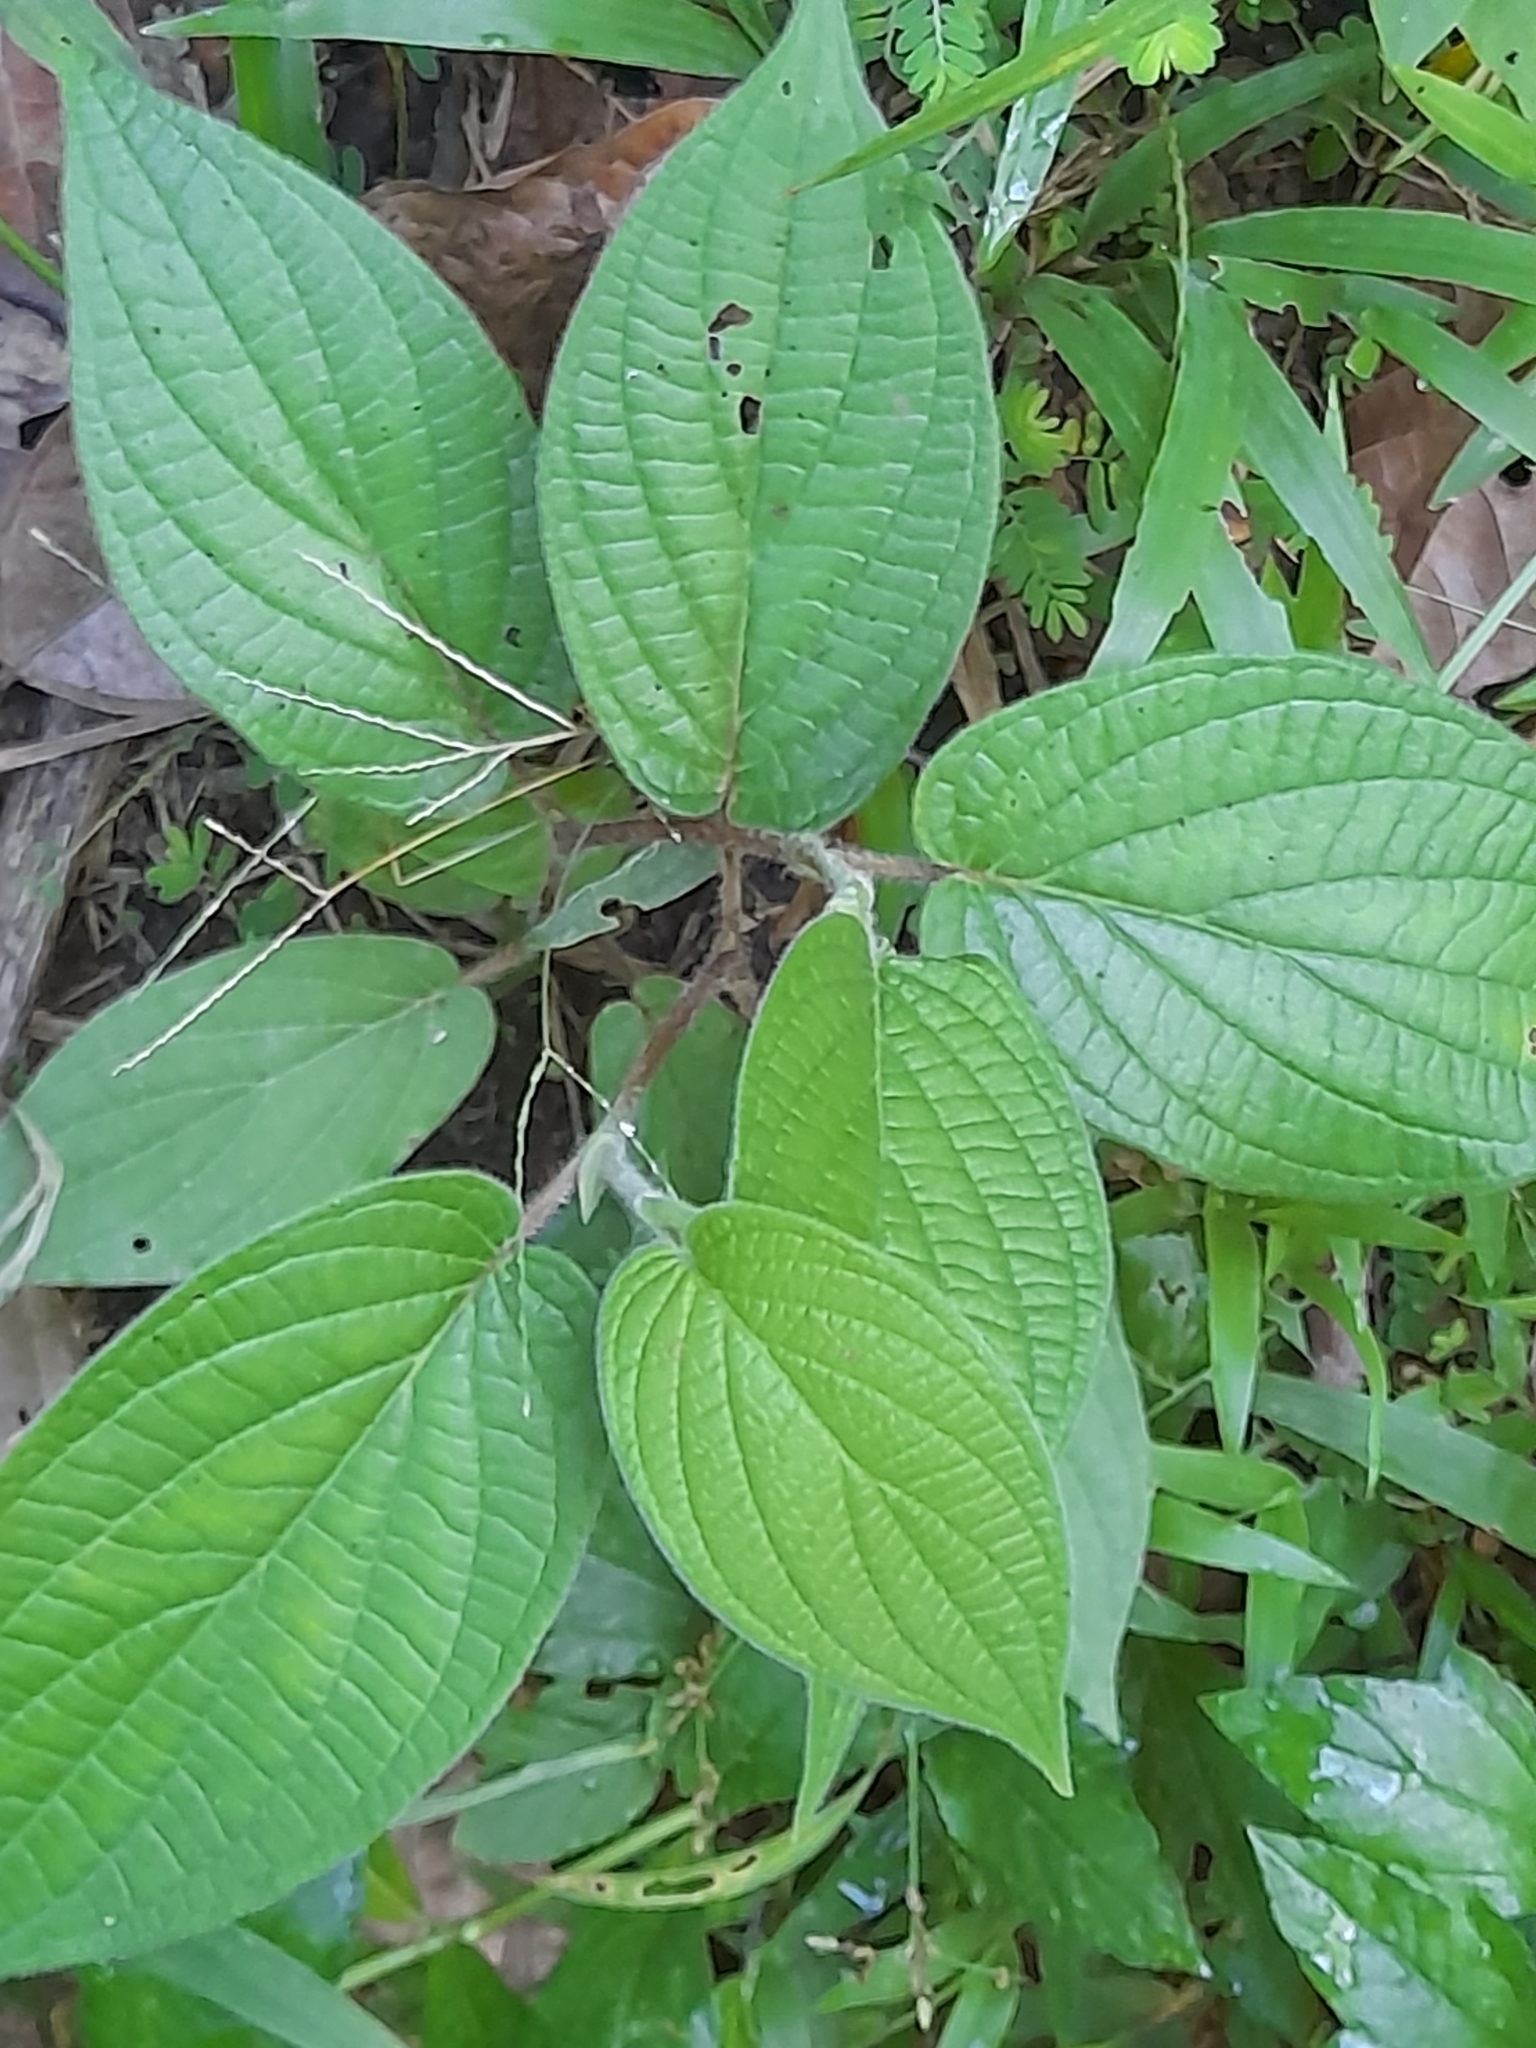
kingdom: Plantae
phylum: Tracheophyta
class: Magnoliopsida
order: Piperales
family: Piperaceae
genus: Piper
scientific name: Piper aduncum
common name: Spiked pepper
